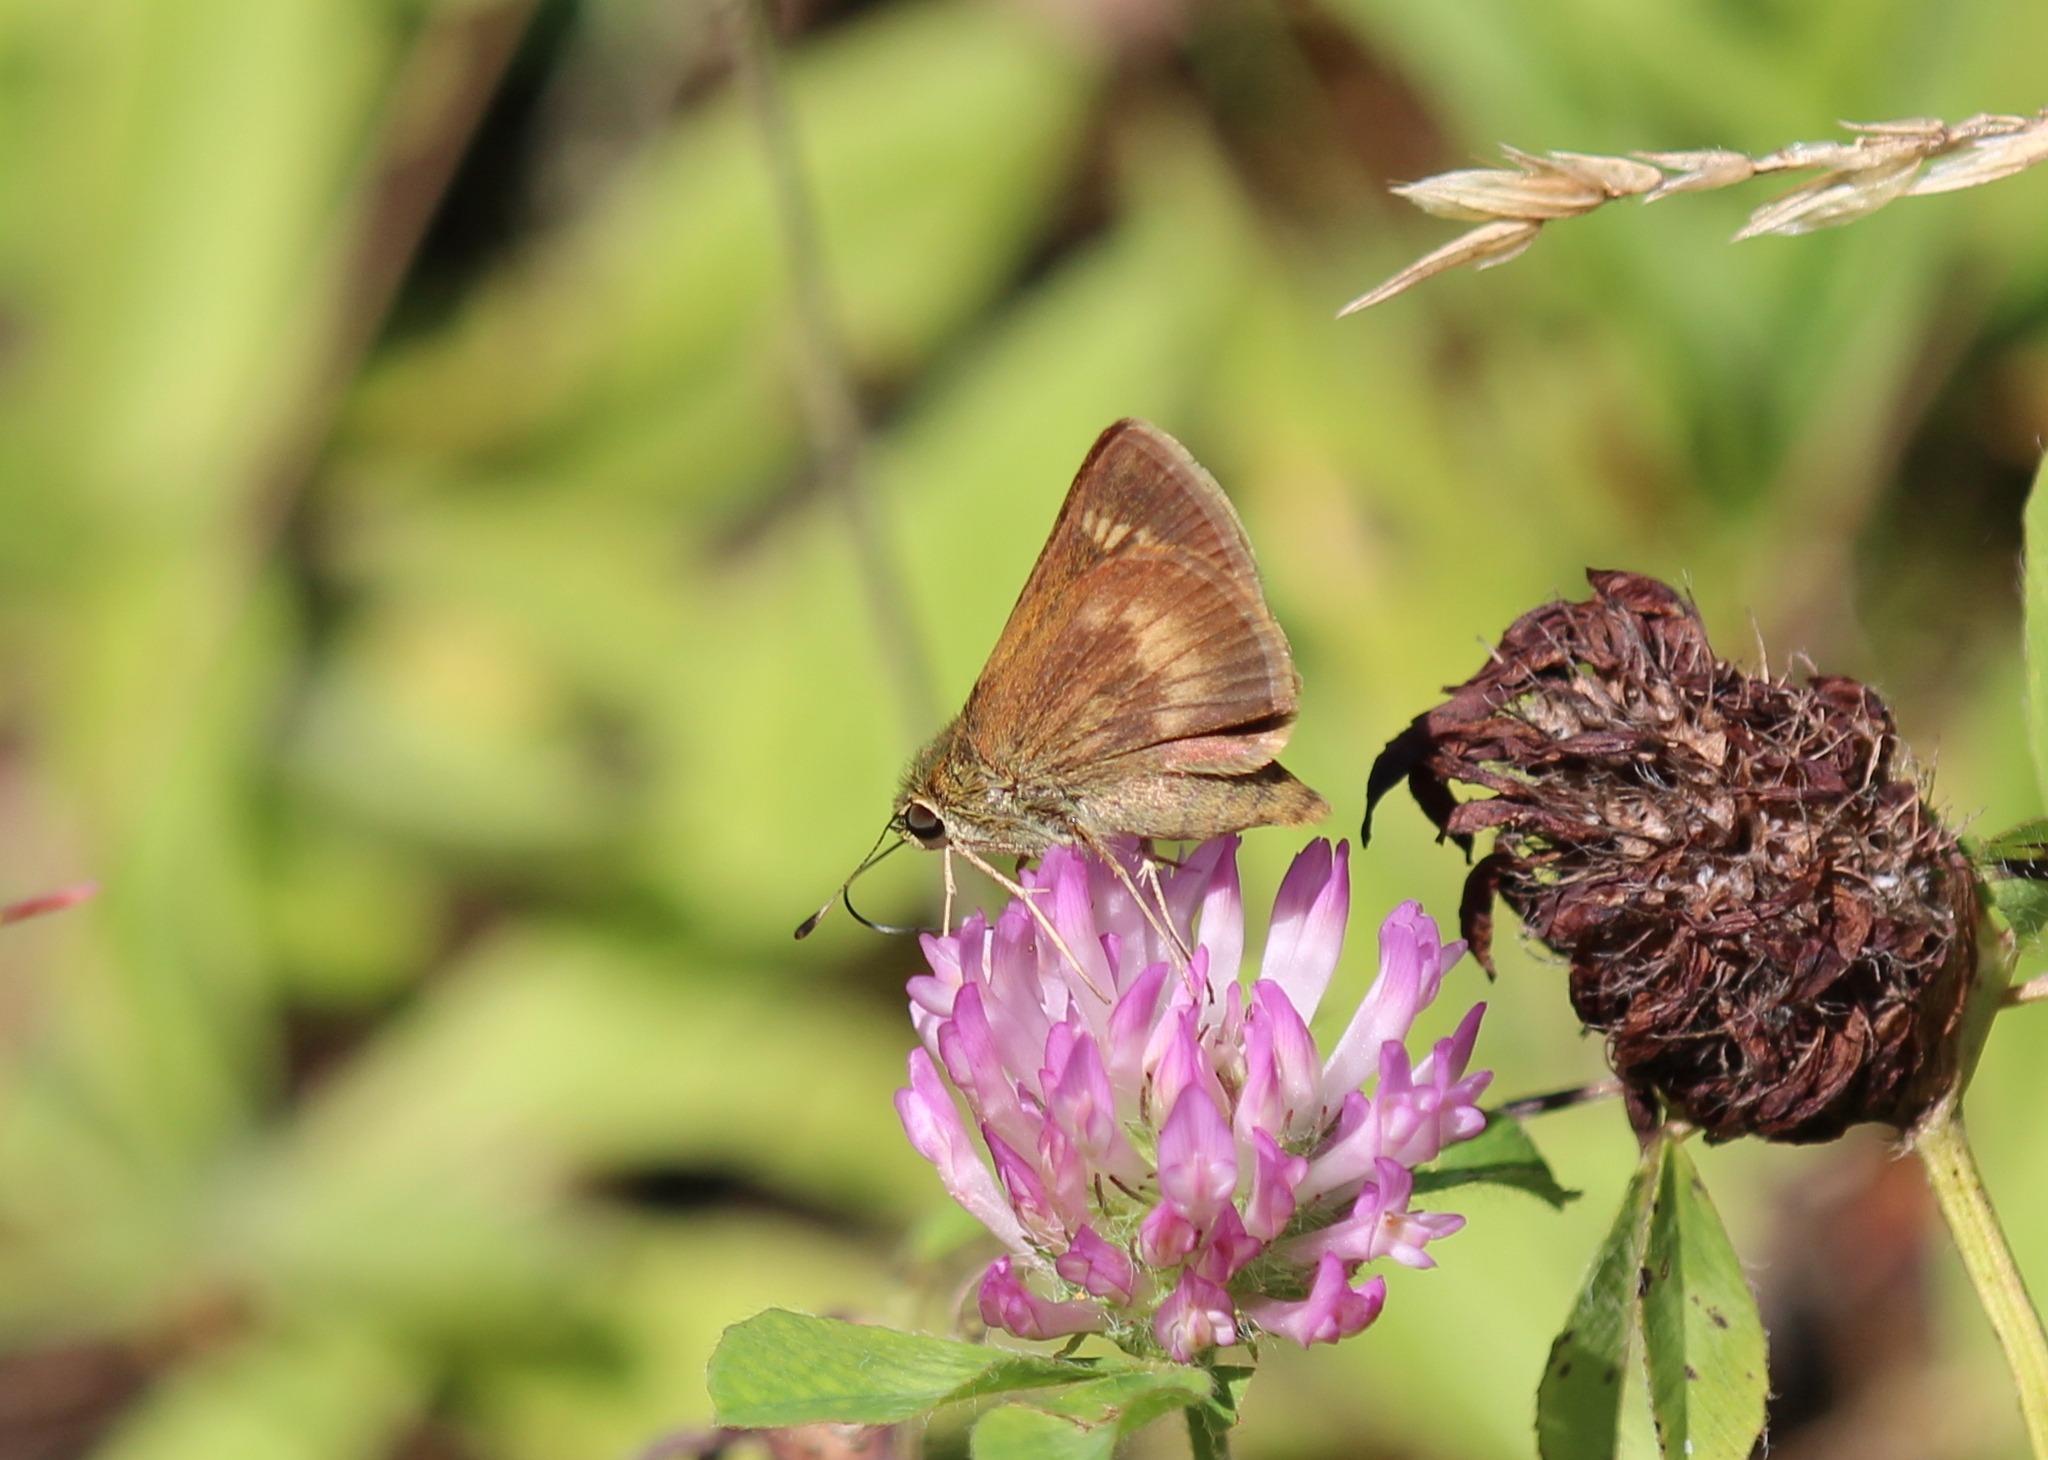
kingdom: Animalia
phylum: Arthropoda
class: Insecta
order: Lepidoptera
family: Hesperiidae
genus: Polites
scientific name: Polites egeremet
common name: Northern broken-dash
